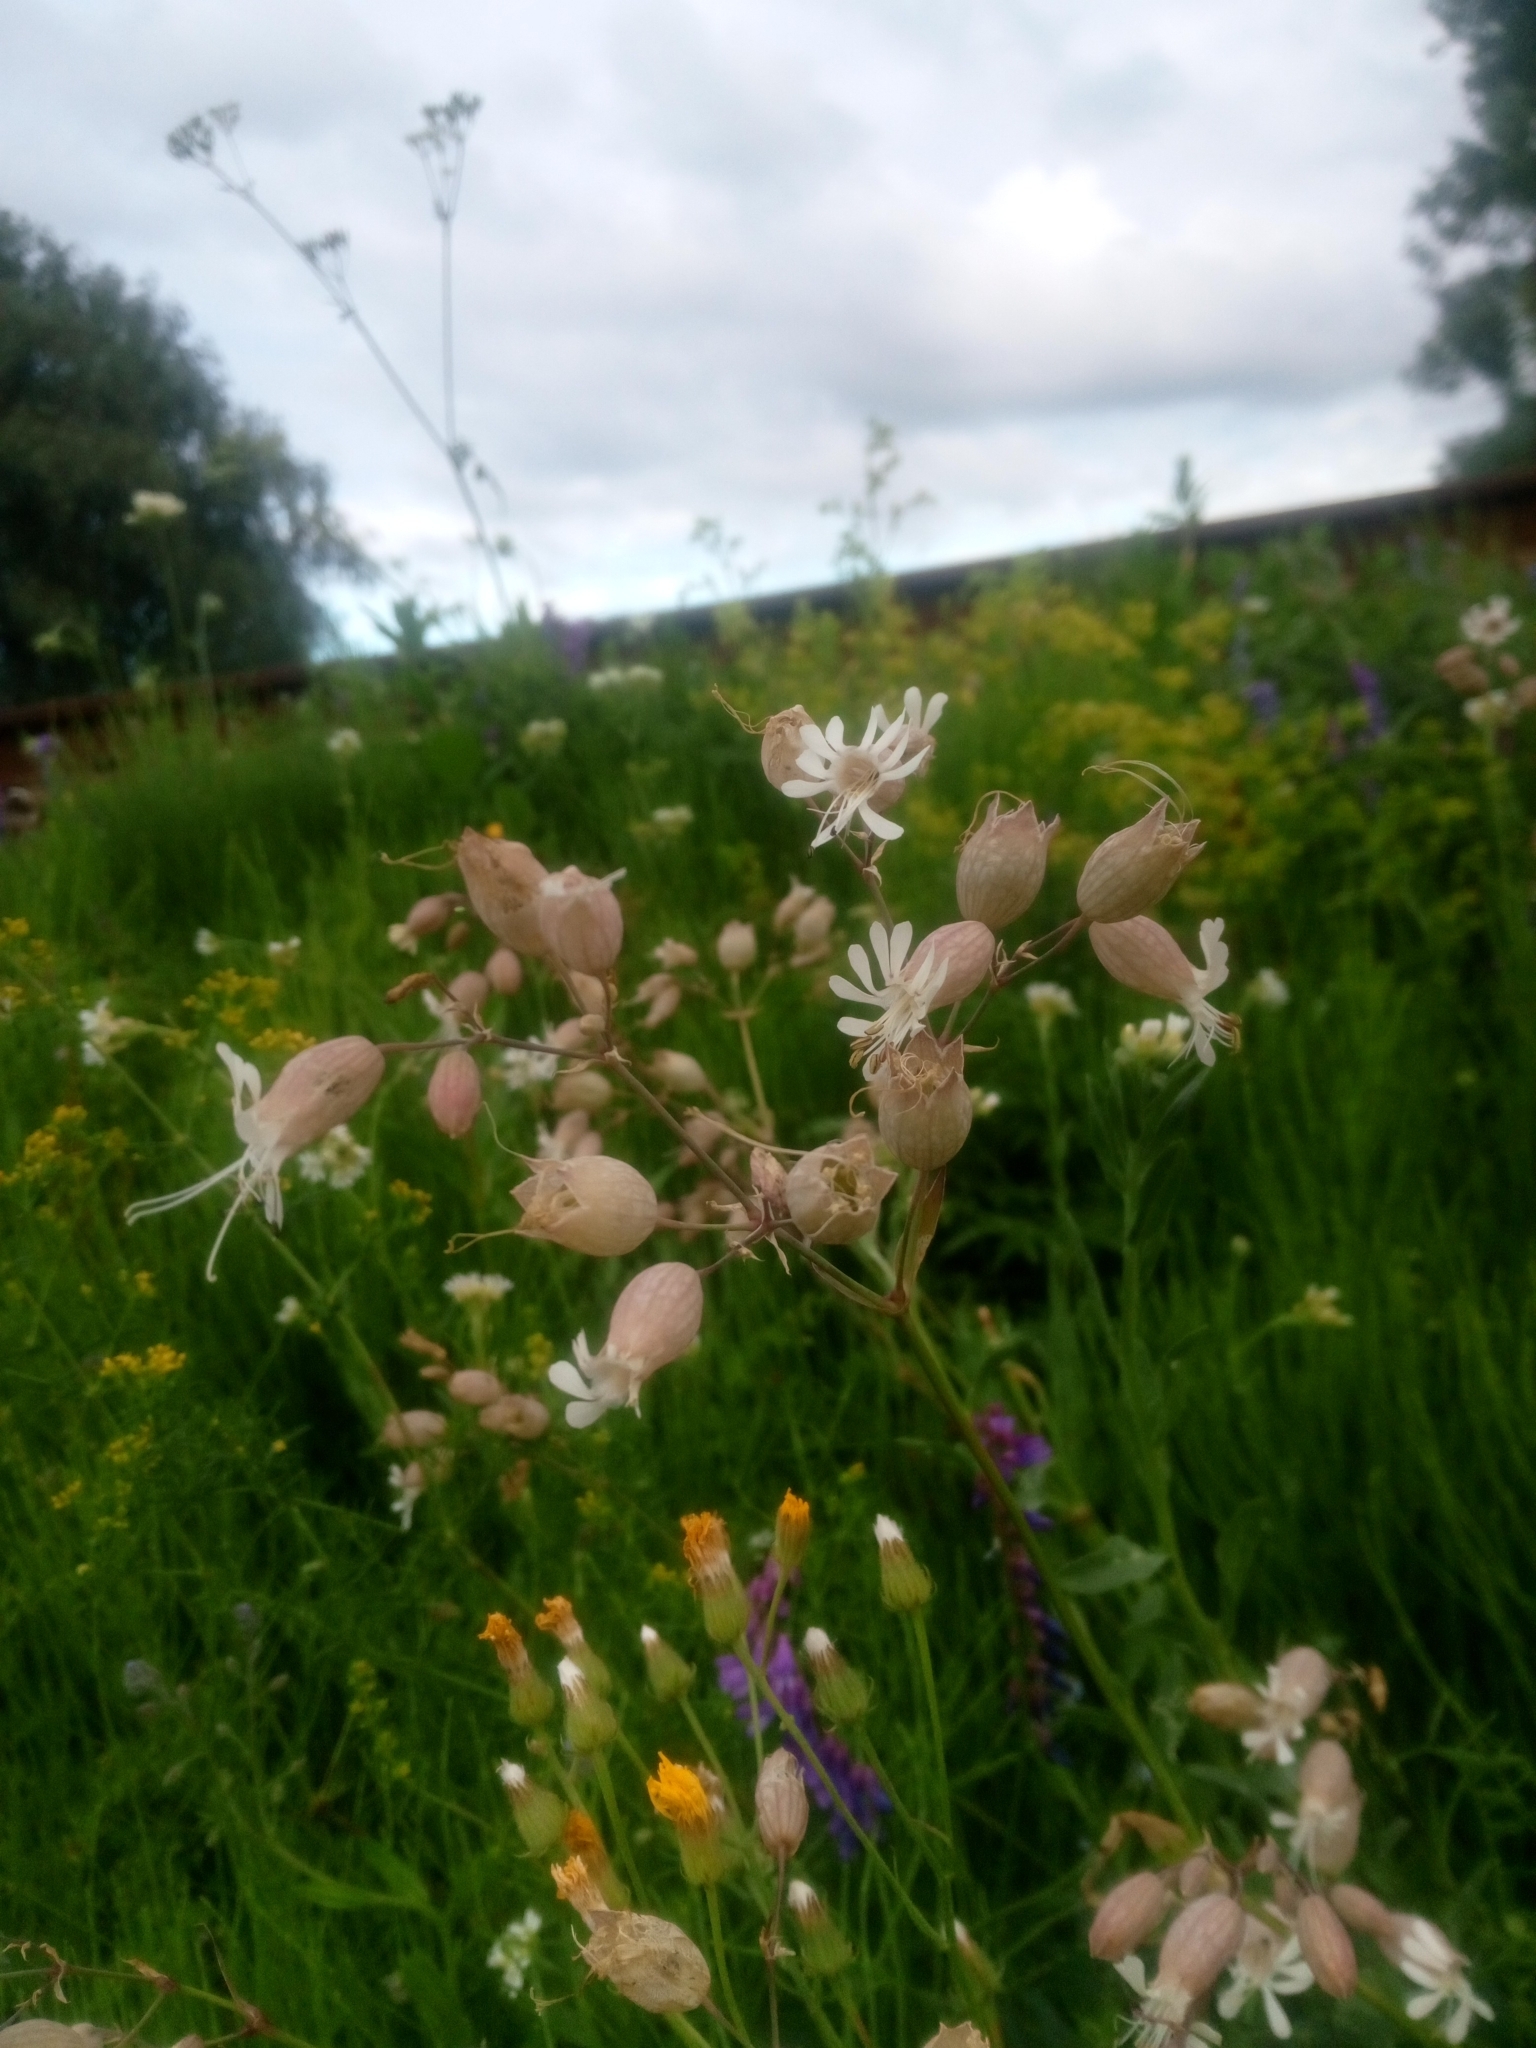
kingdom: Plantae
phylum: Tracheophyta
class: Magnoliopsida
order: Caryophyllales
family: Caryophyllaceae
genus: Silene
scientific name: Silene vulgaris
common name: Bladder campion
